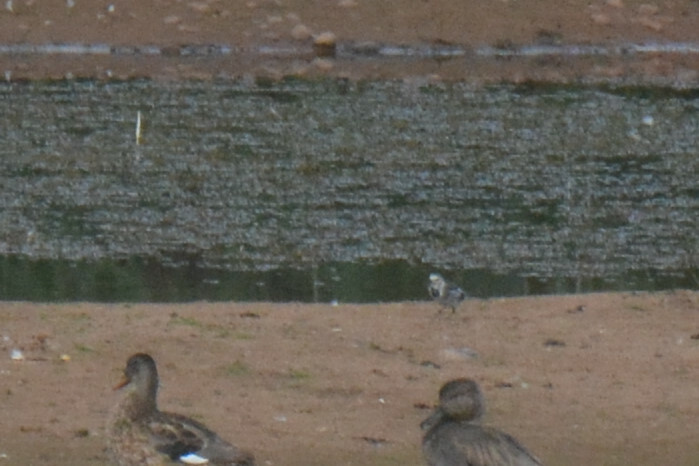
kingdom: Animalia
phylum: Chordata
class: Aves
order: Passeriformes
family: Motacillidae
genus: Motacilla
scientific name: Motacilla alba
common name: White wagtail
